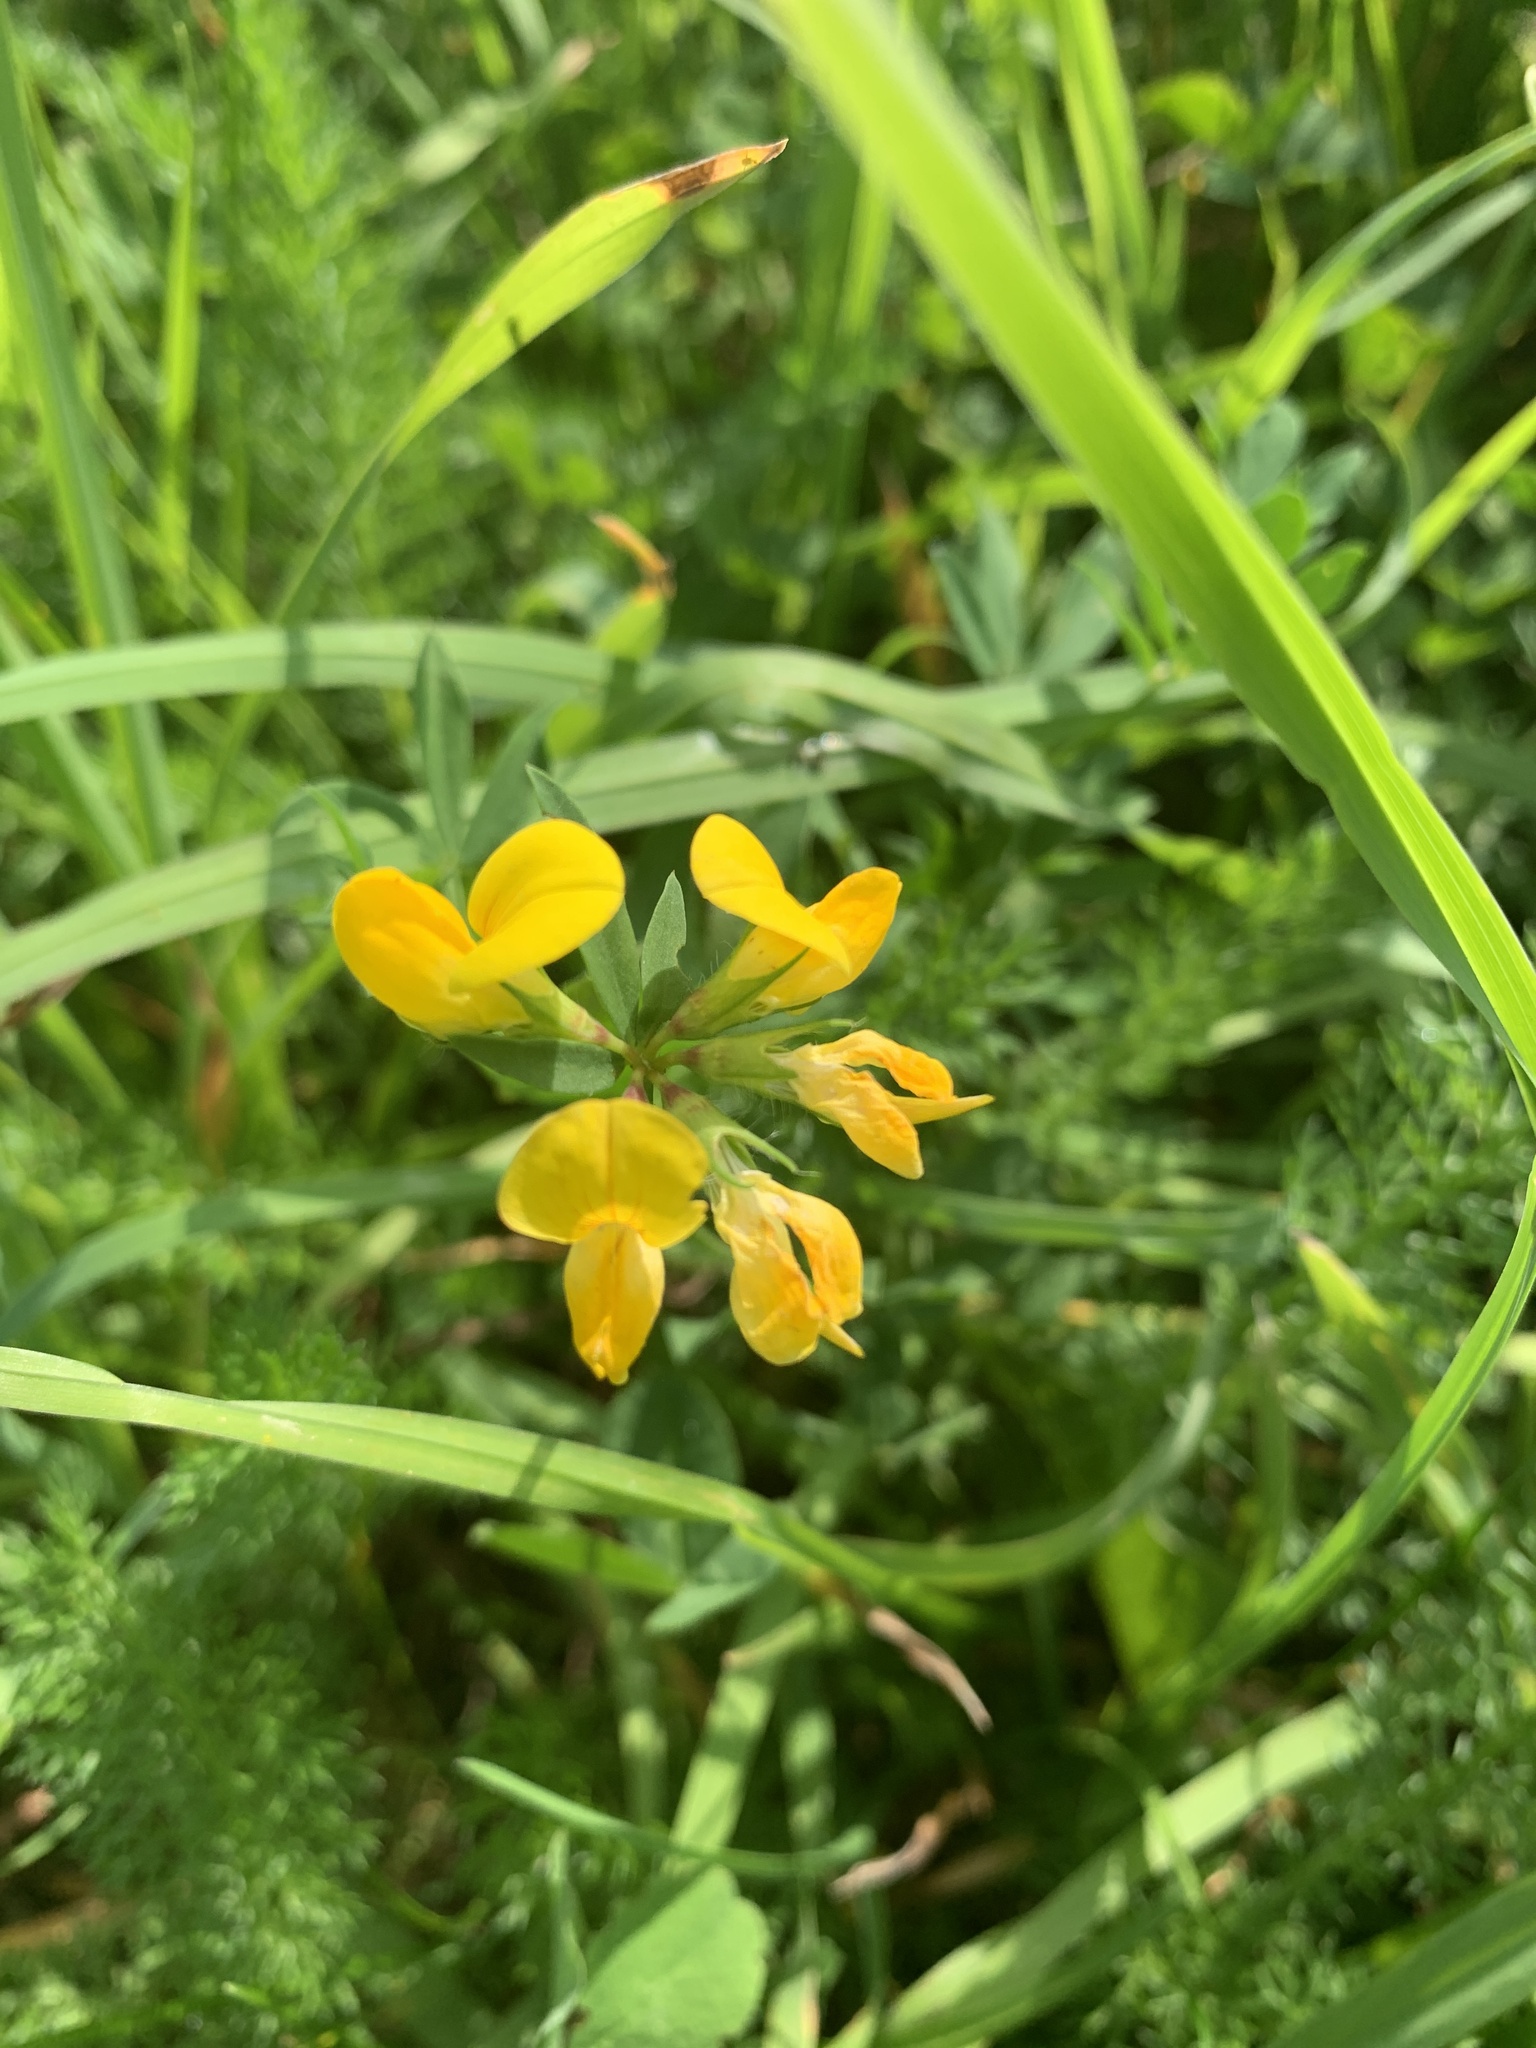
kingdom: Plantae
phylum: Tracheophyta
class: Magnoliopsida
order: Fabales
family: Fabaceae
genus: Lotus
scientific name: Lotus corniculatus
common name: Common bird's-foot-trefoil
